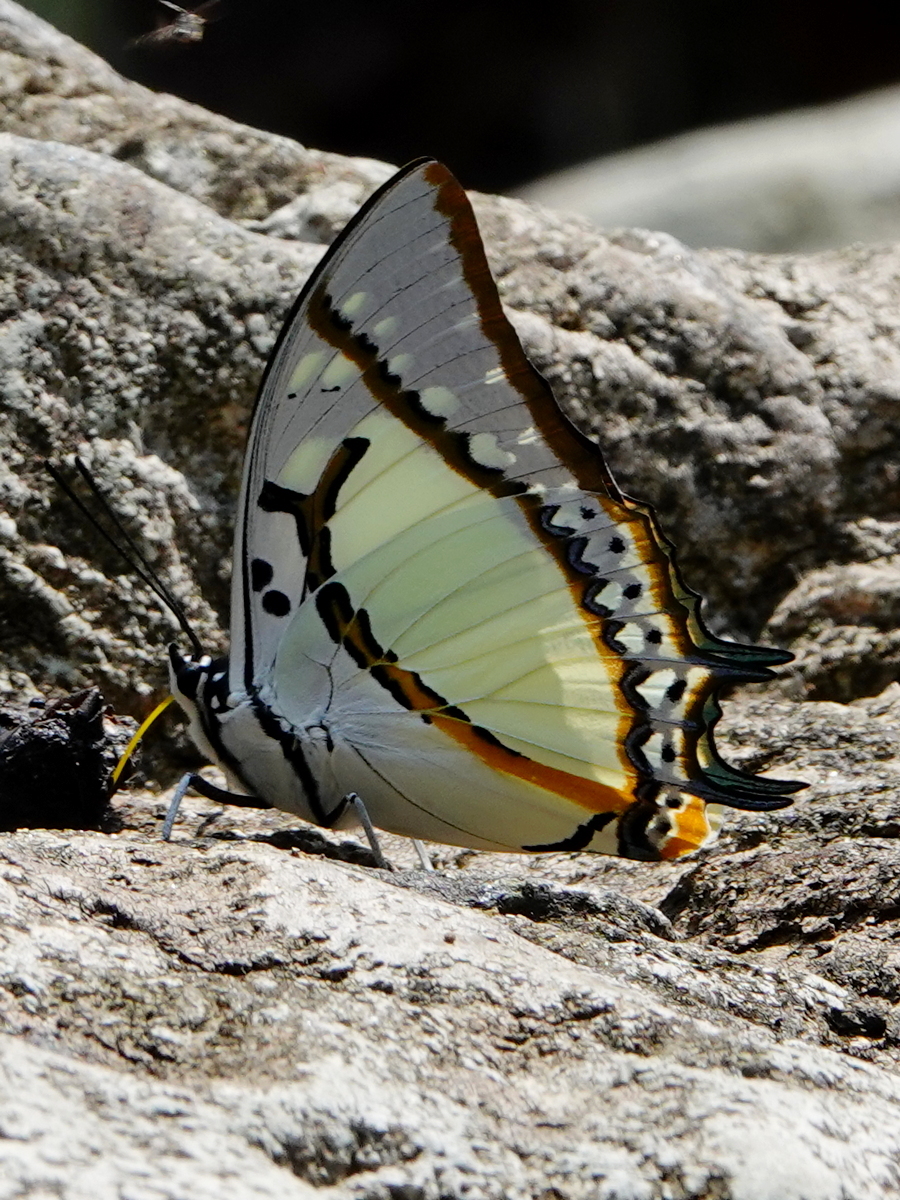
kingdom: Animalia
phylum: Arthropoda
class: Insecta
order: Lepidoptera
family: Nymphalidae
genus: Polyura
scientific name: Polyura eudamippus
